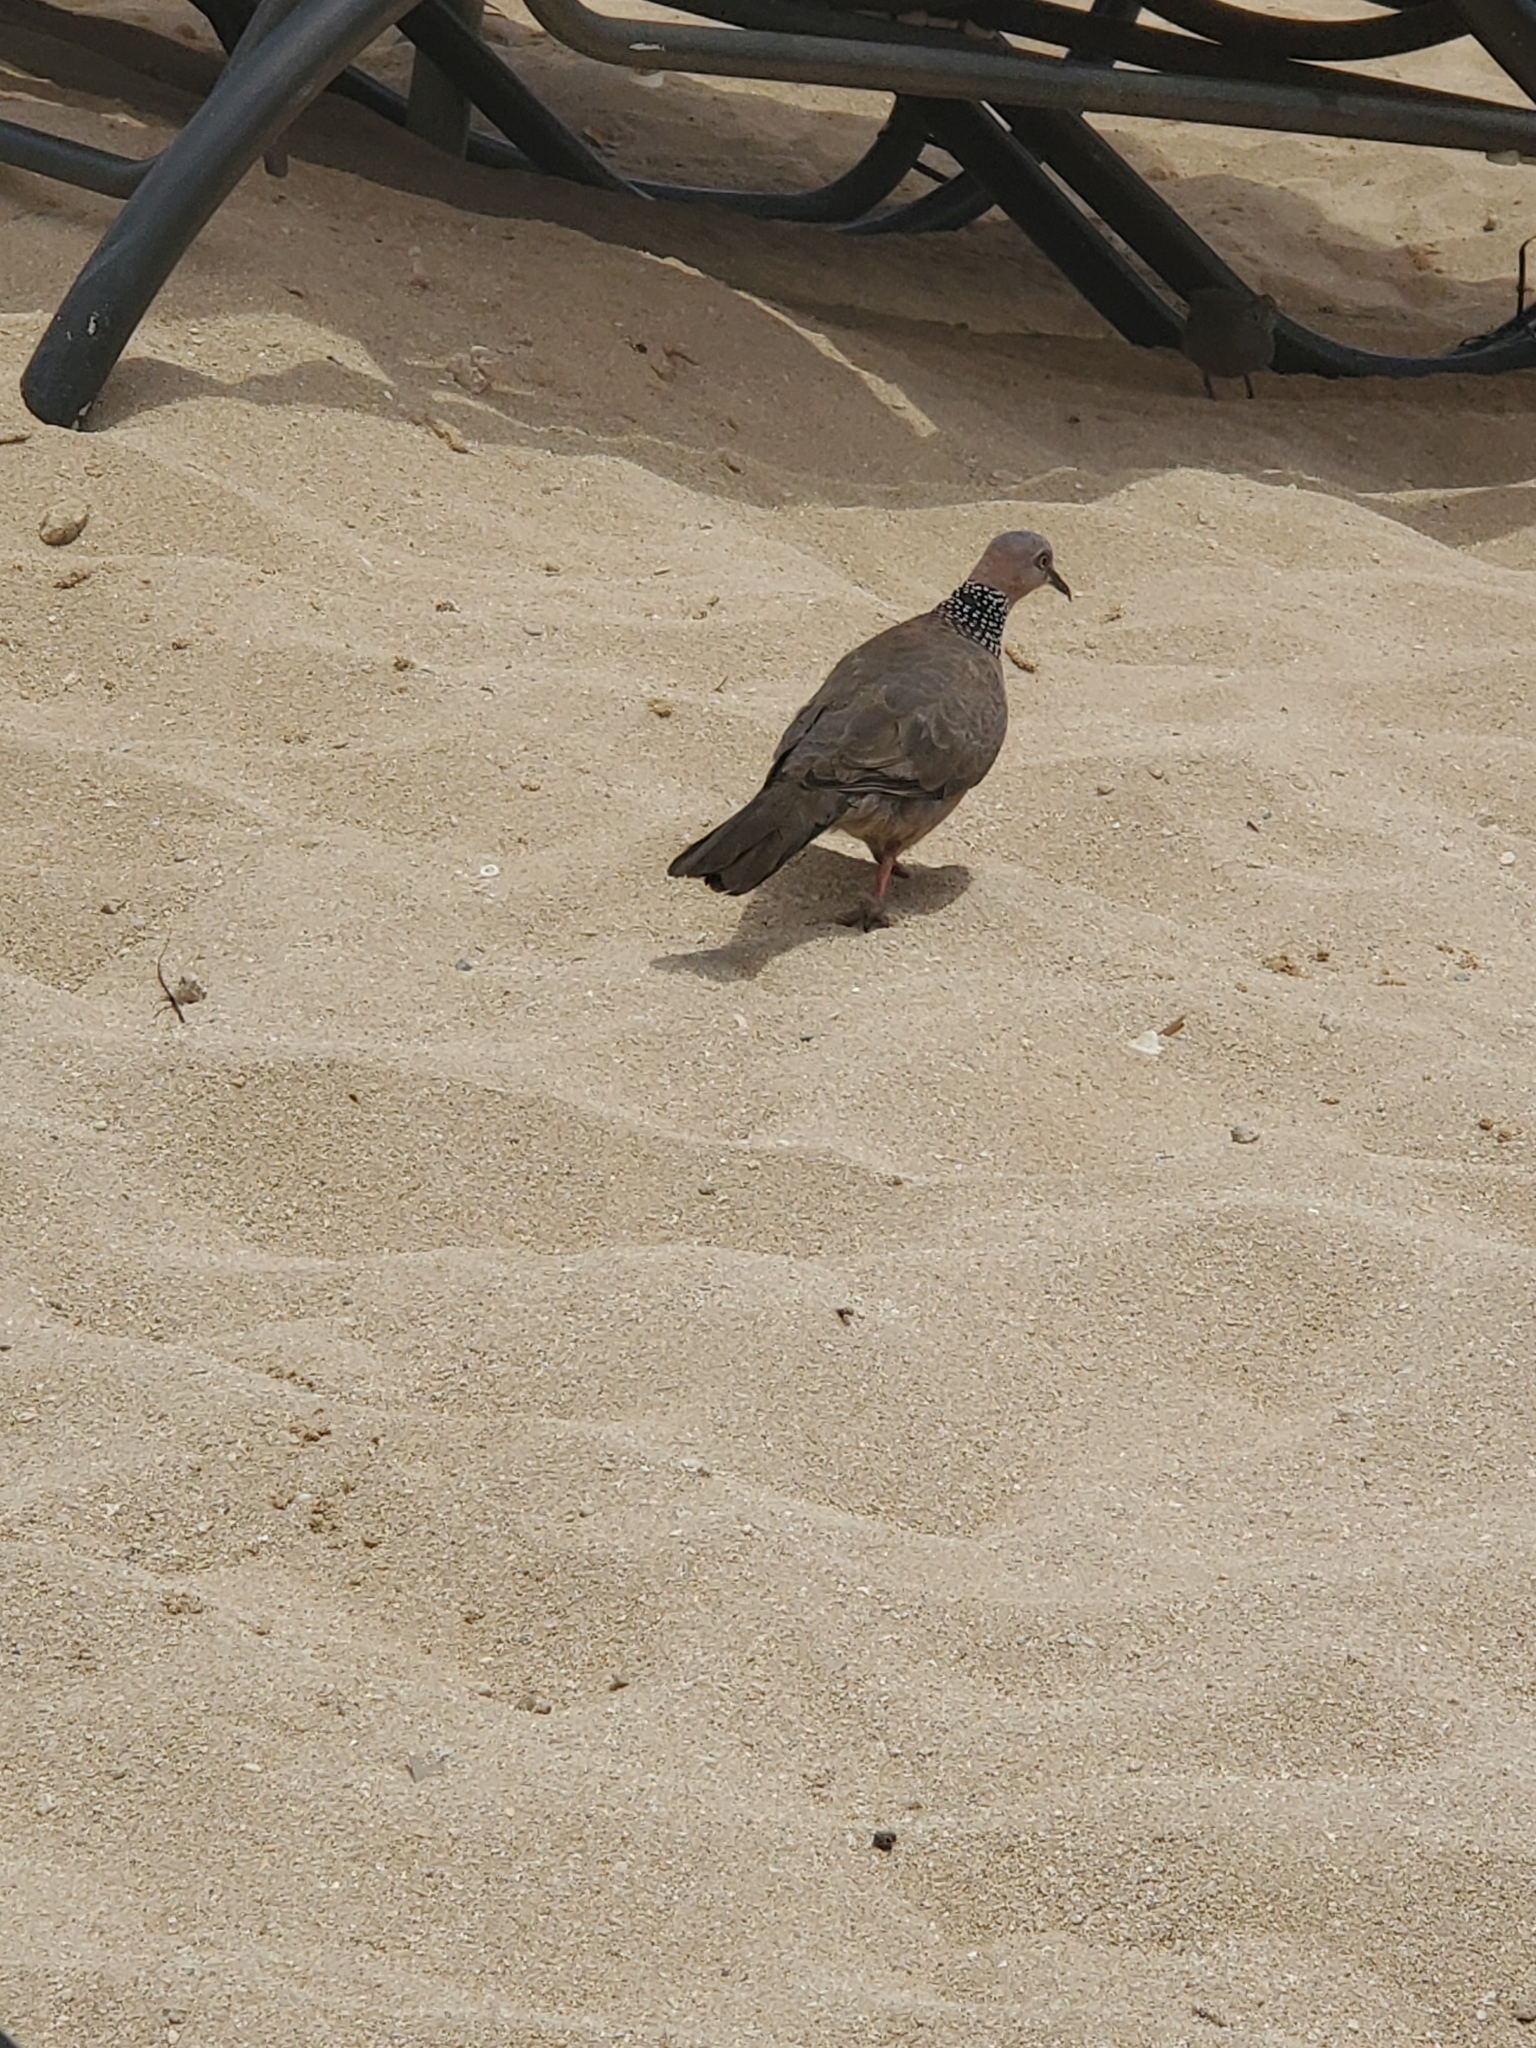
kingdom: Animalia
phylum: Chordata
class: Aves
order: Columbiformes
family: Columbidae
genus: Spilopelia
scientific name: Spilopelia chinensis
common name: Spotted dove
